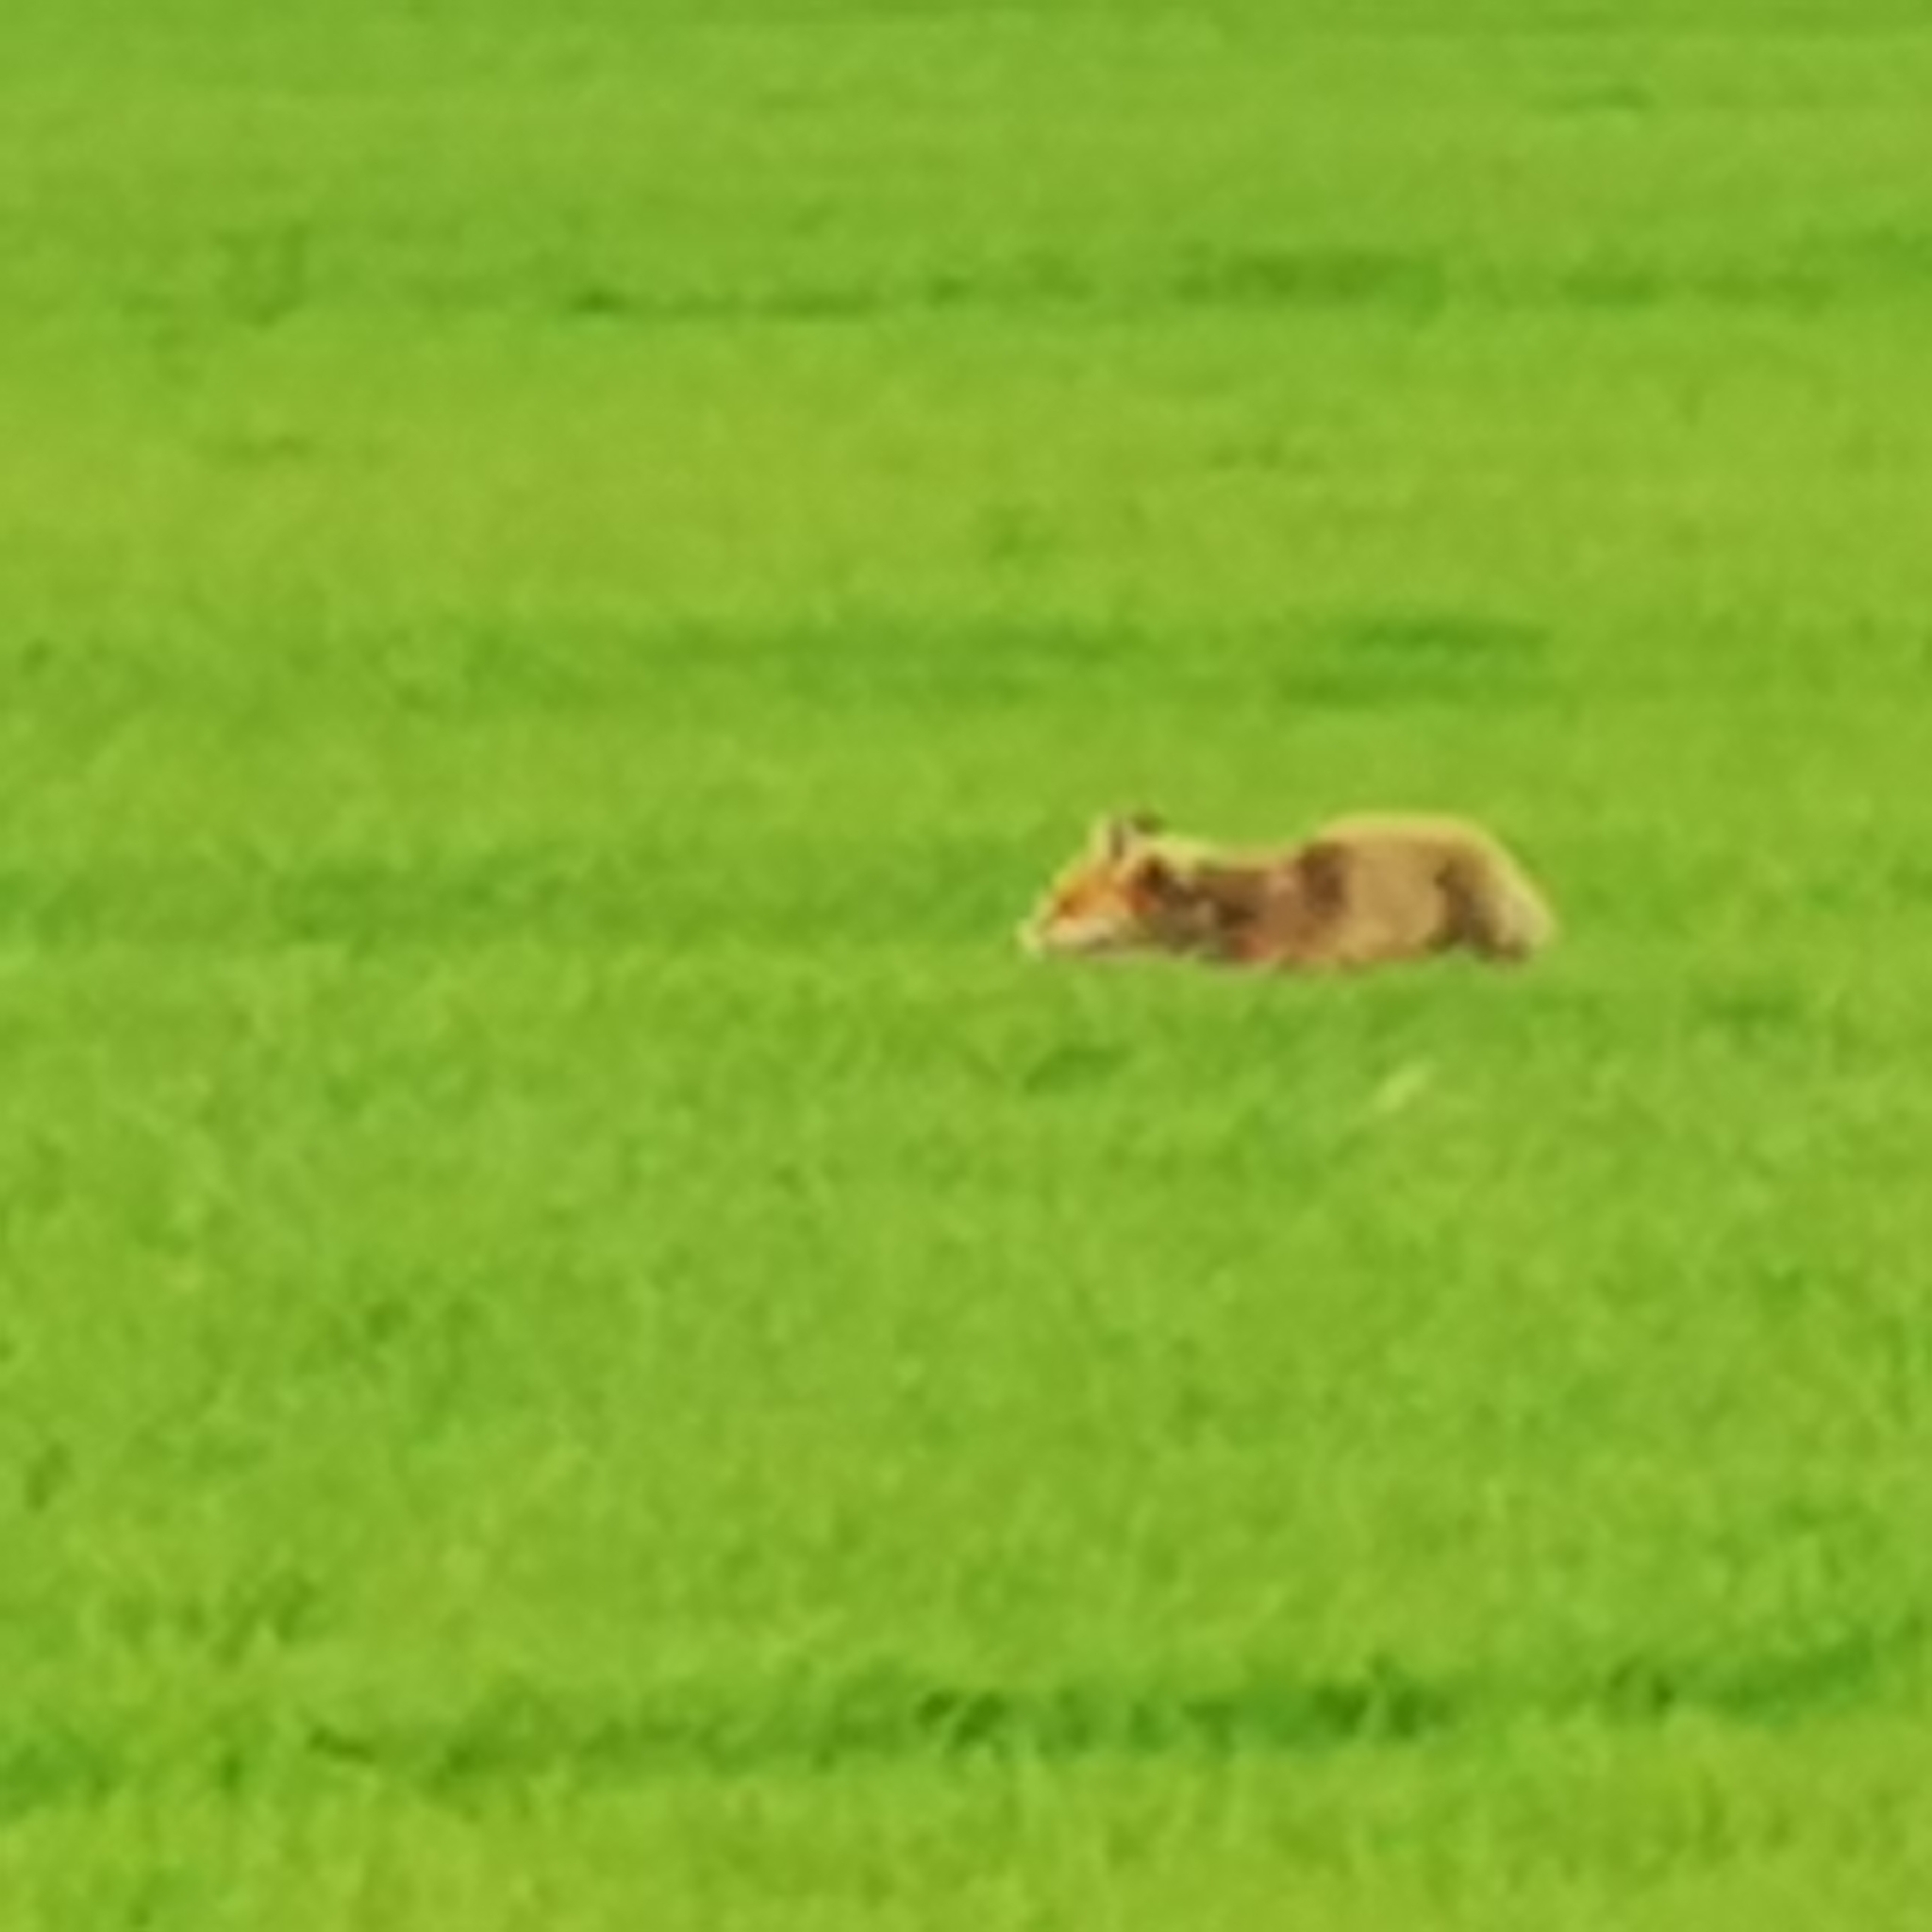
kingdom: Animalia
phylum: Chordata
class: Mammalia
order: Carnivora
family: Canidae
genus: Vulpes
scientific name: Vulpes vulpes
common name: Red fox
